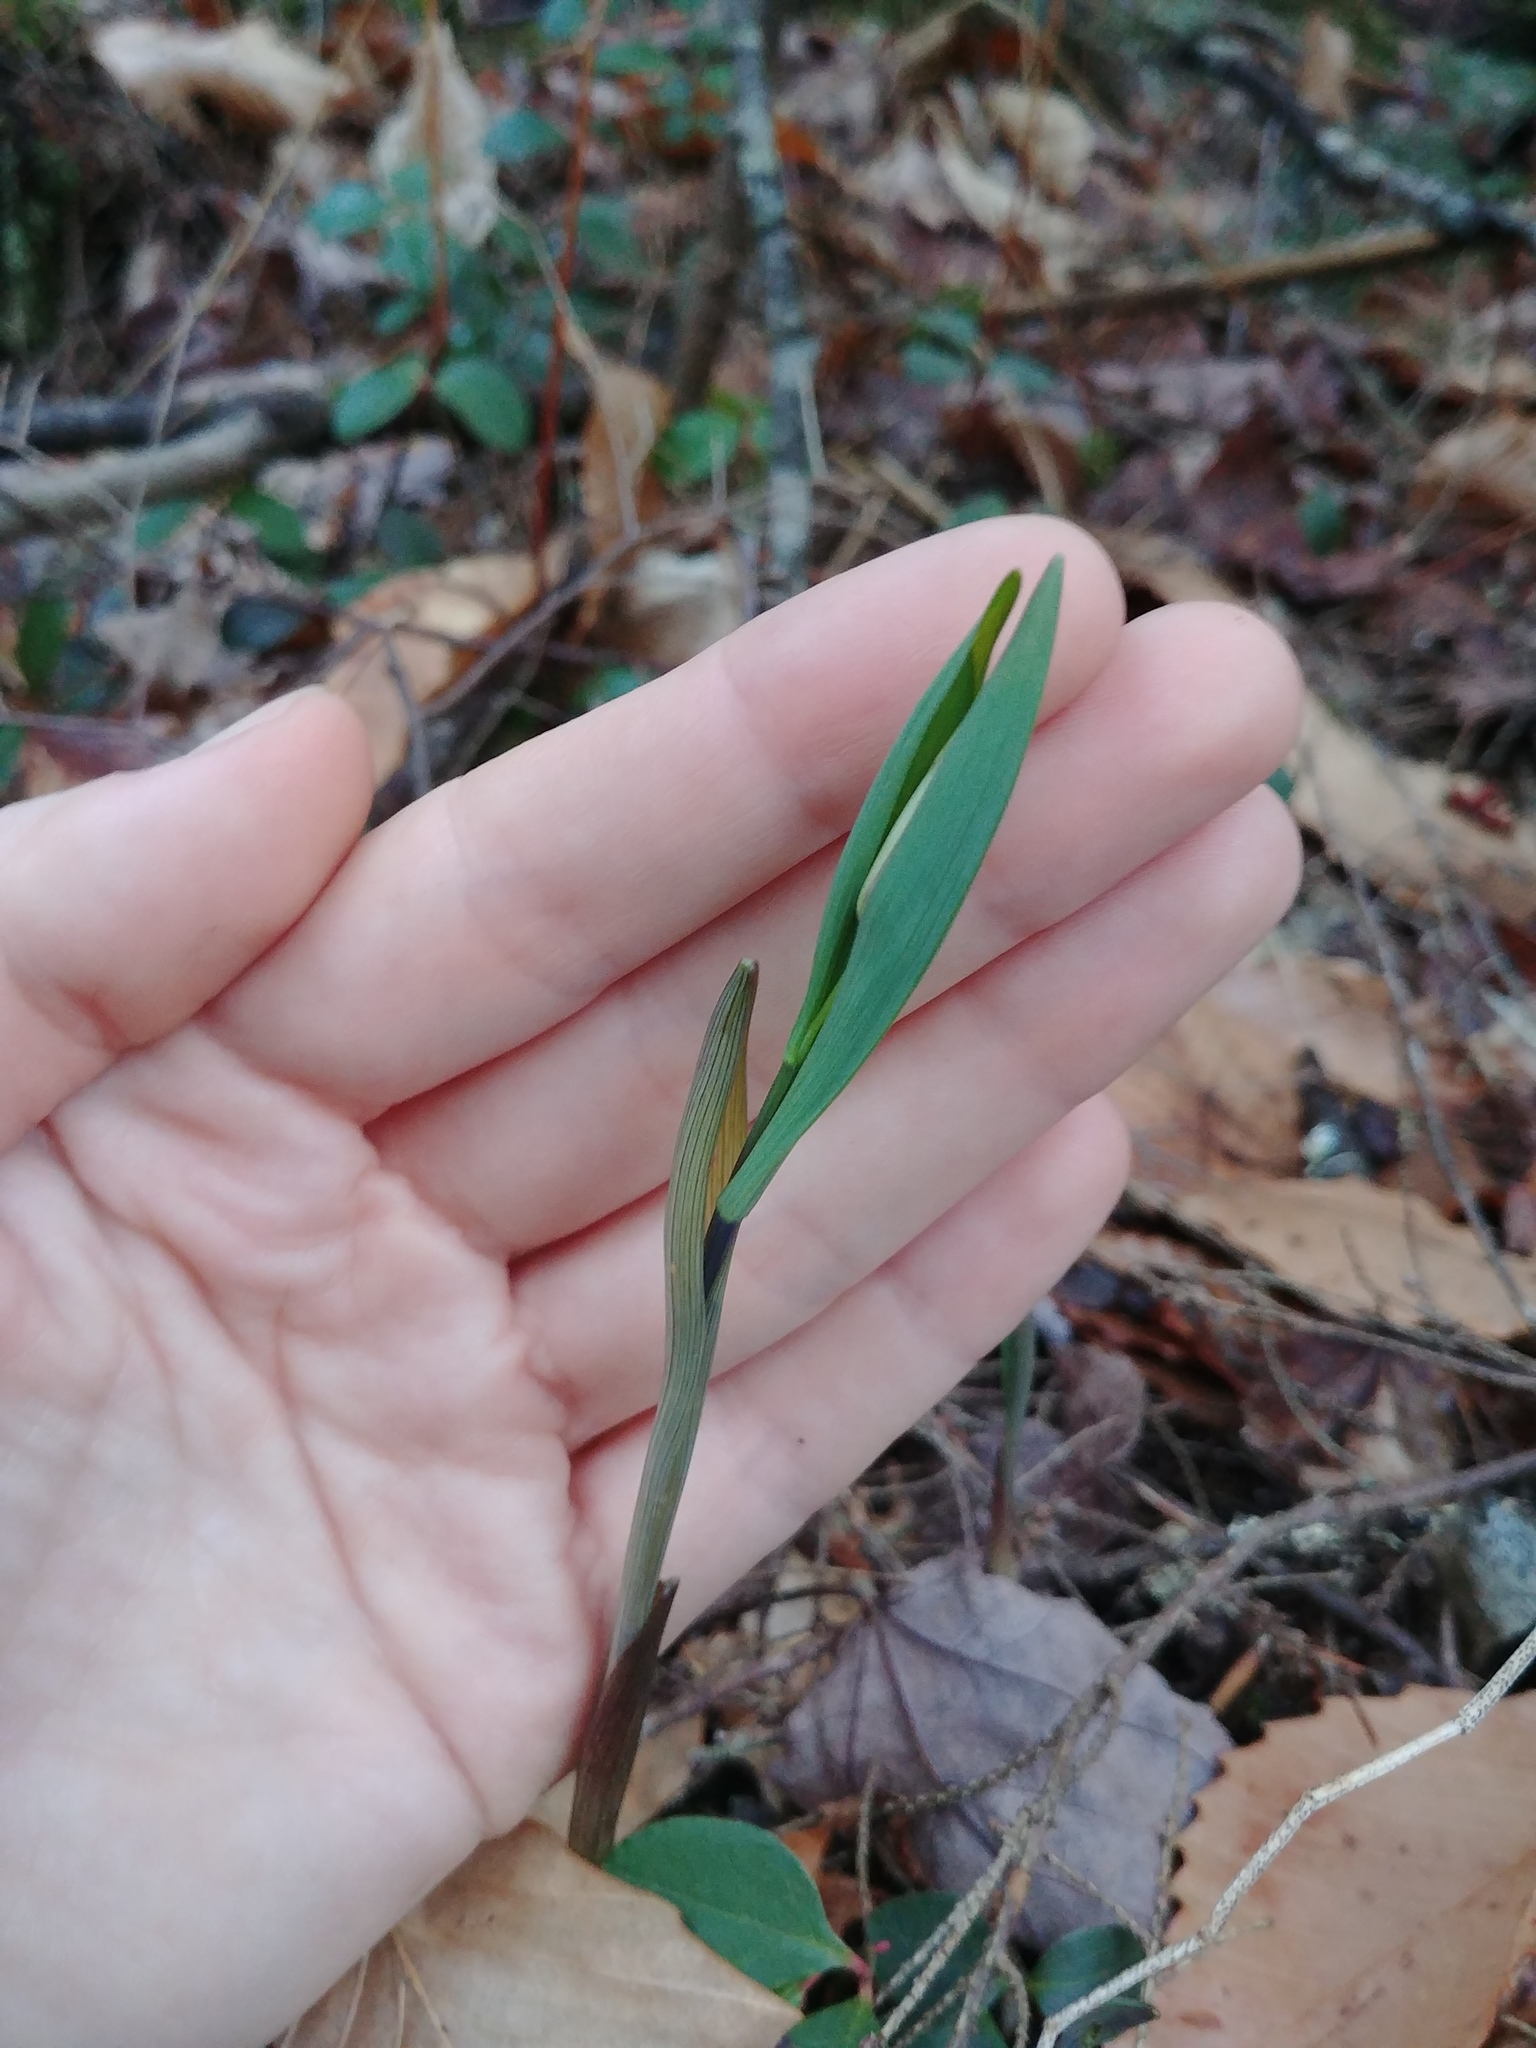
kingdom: Plantae
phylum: Tracheophyta
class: Liliopsida
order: Liliales
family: Colchicaceae
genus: Uvularia
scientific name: Uvularia sessilifolia
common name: Straw-lily
